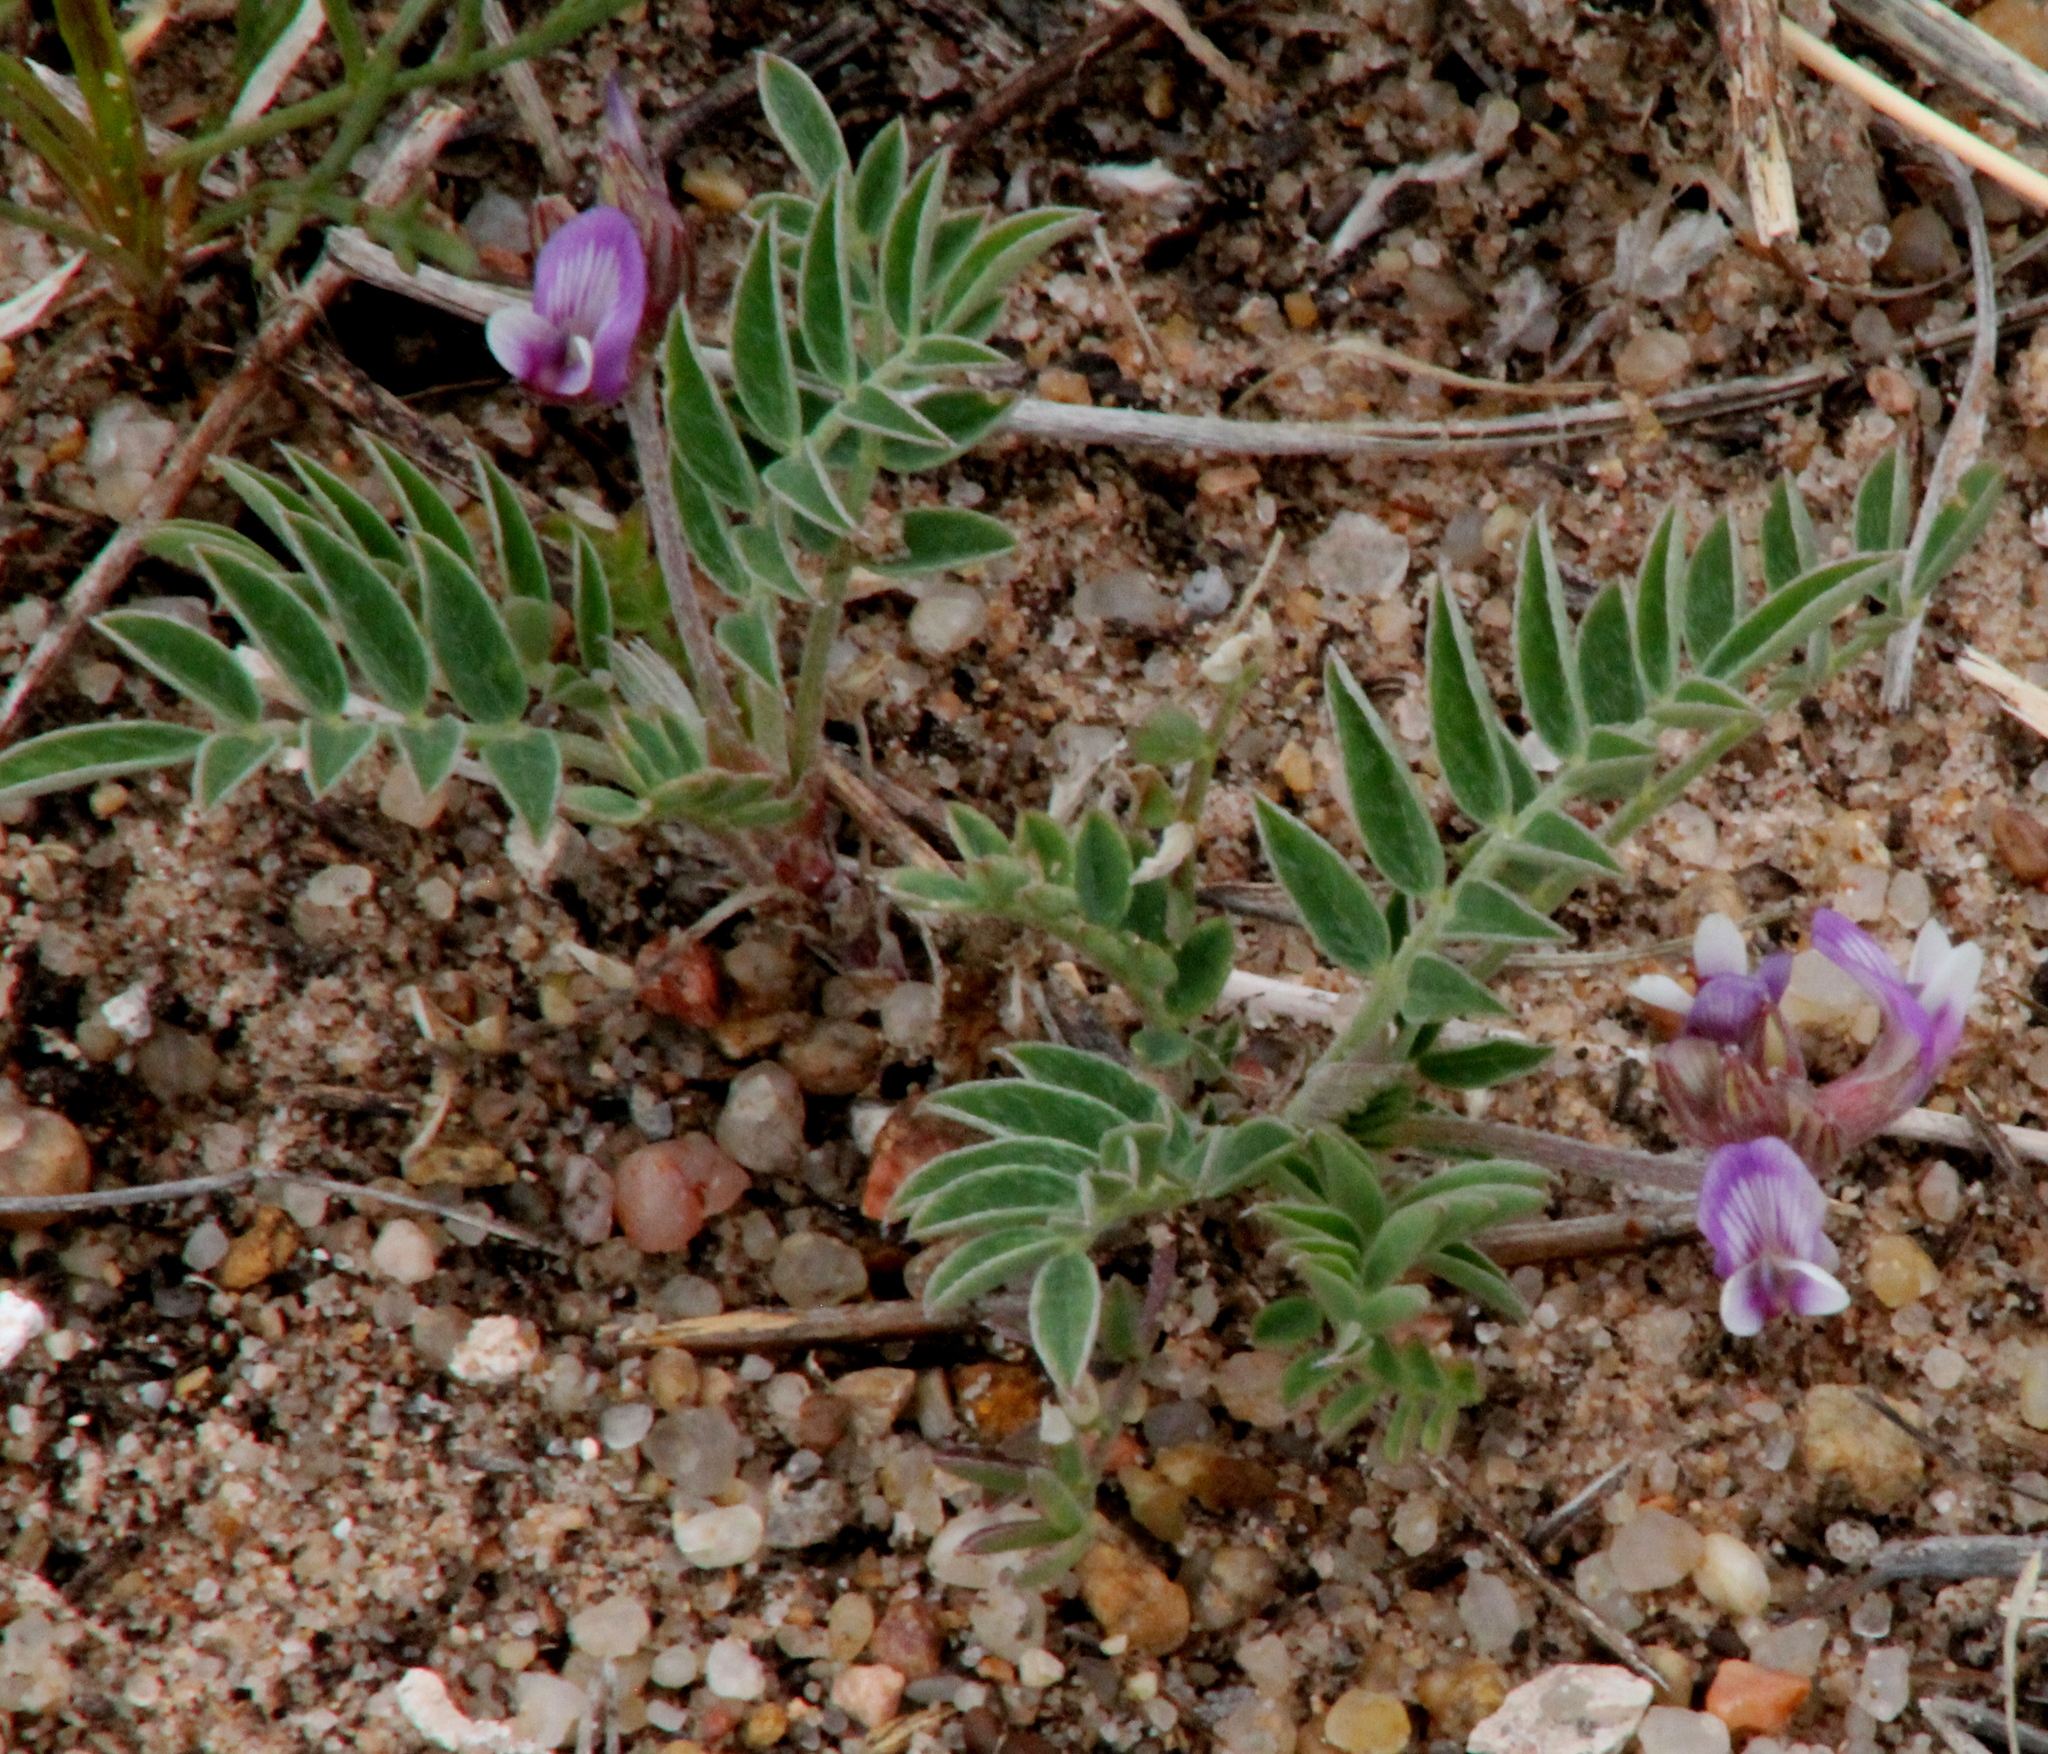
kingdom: Plantae
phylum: Tracheophyta
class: Magnoliopsida
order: Fabales
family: Fabaceae
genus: Astragalus
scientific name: Astragalus lotiflorus
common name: Lotus milk-vetch
